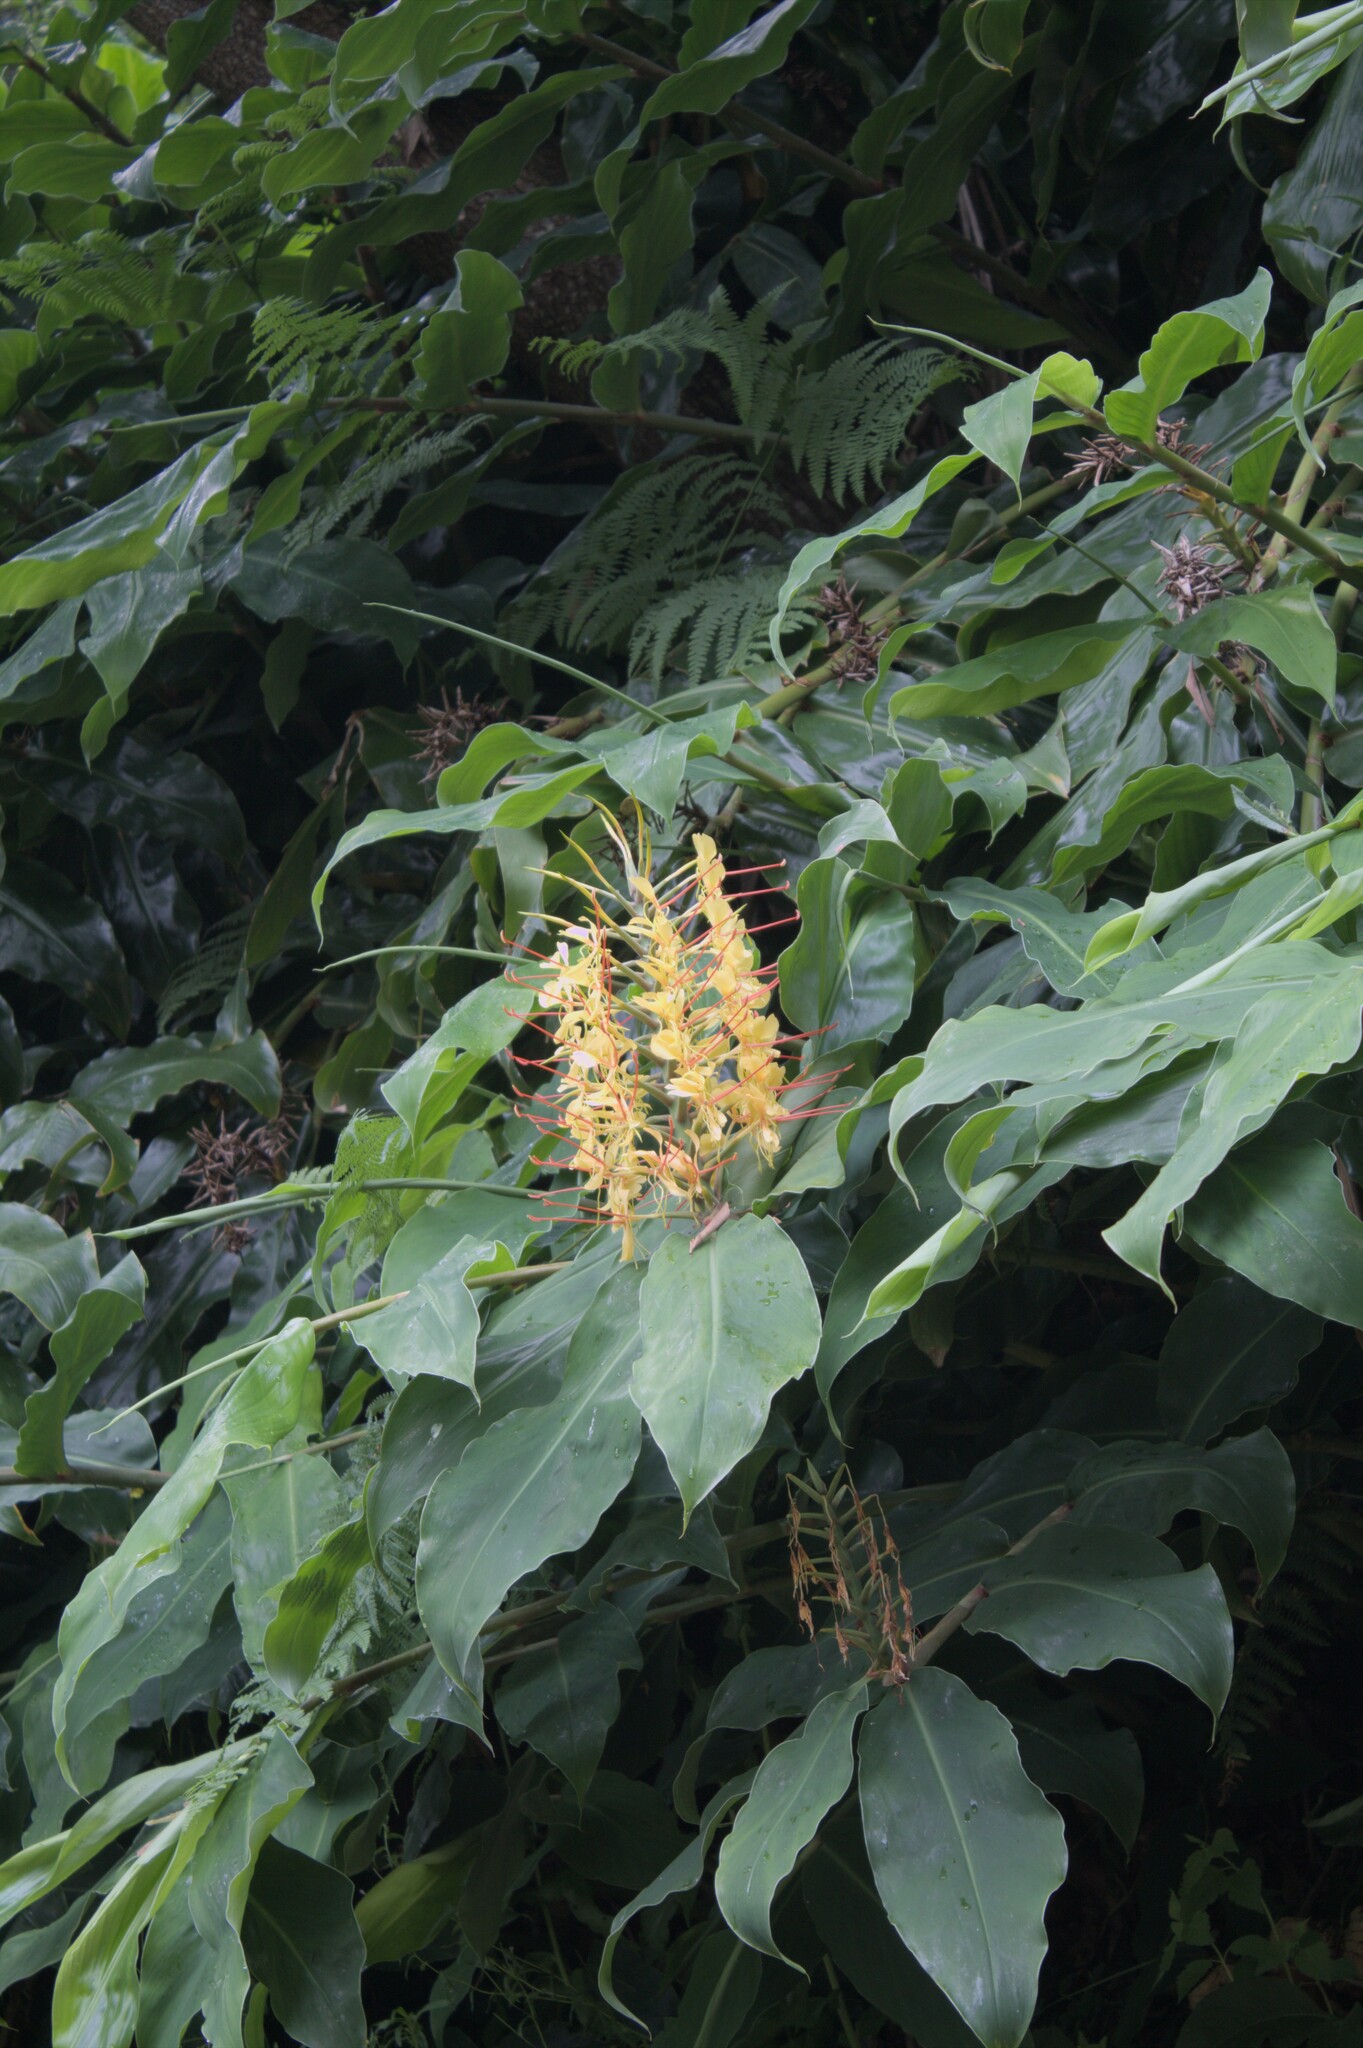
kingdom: Plantae
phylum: Tracheophyta
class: Liliopsida
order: Zingiberales
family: Zingiberaceae
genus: Hedychium
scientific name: Hedychium gardnerianum
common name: Himalayan ginger
